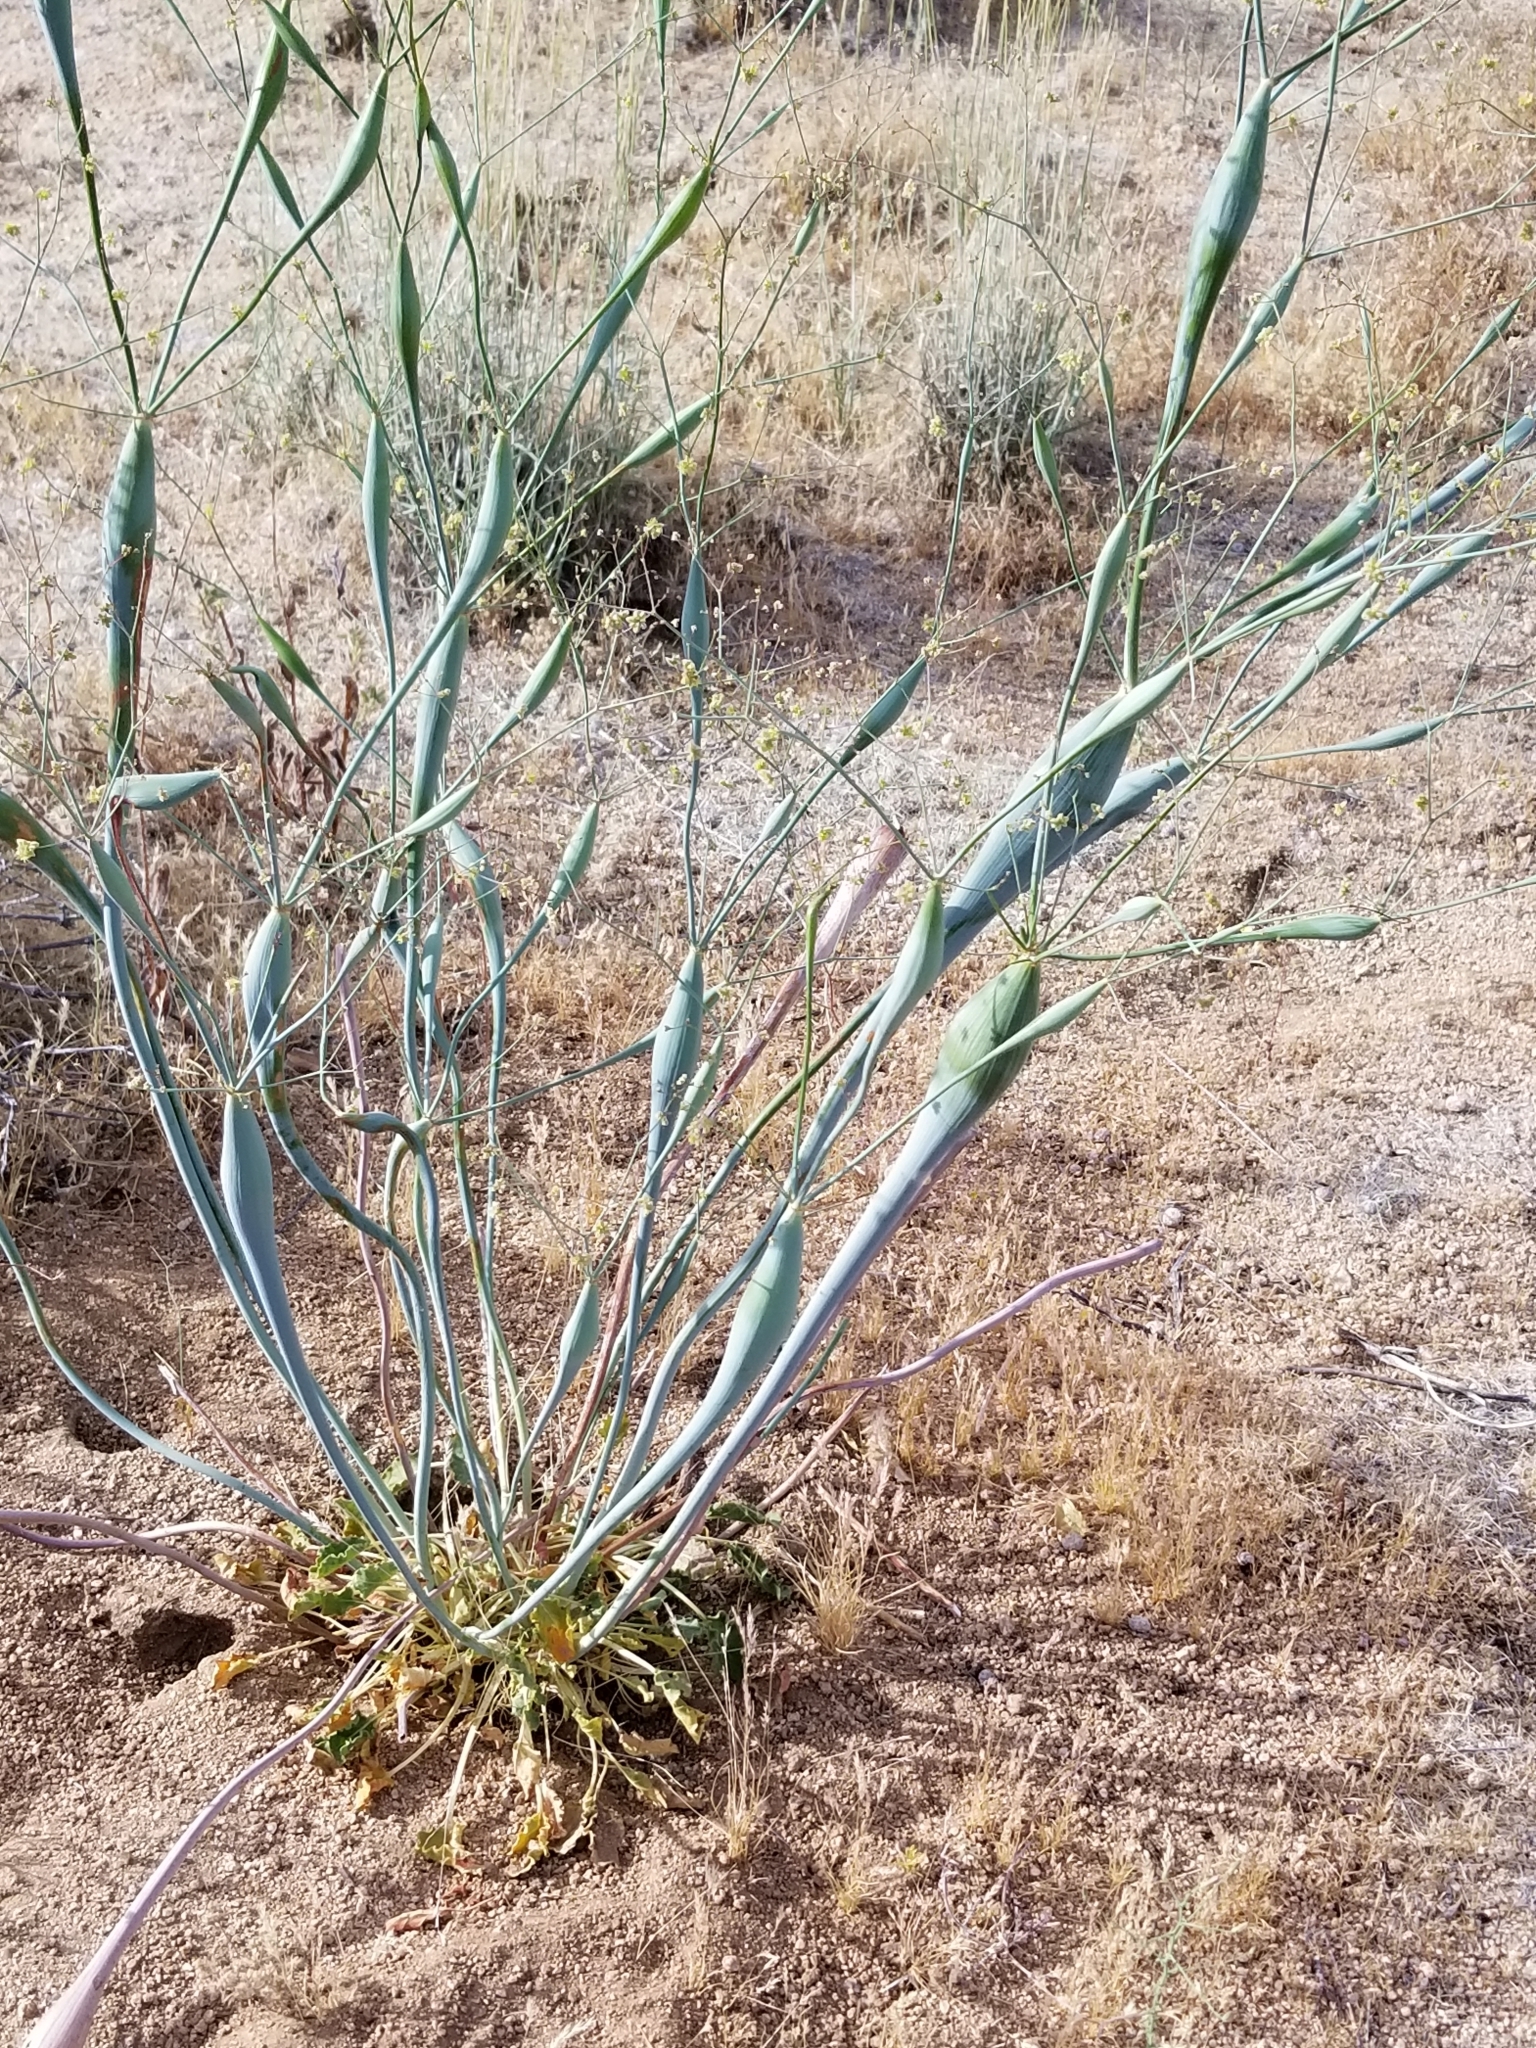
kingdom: Plantae
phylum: Tracheophyta
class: Magnoliopsida
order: Caryophyllales
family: Polygonaceae
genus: Eriogonum
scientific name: Eriogonum inflatum
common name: Desert trumpet
